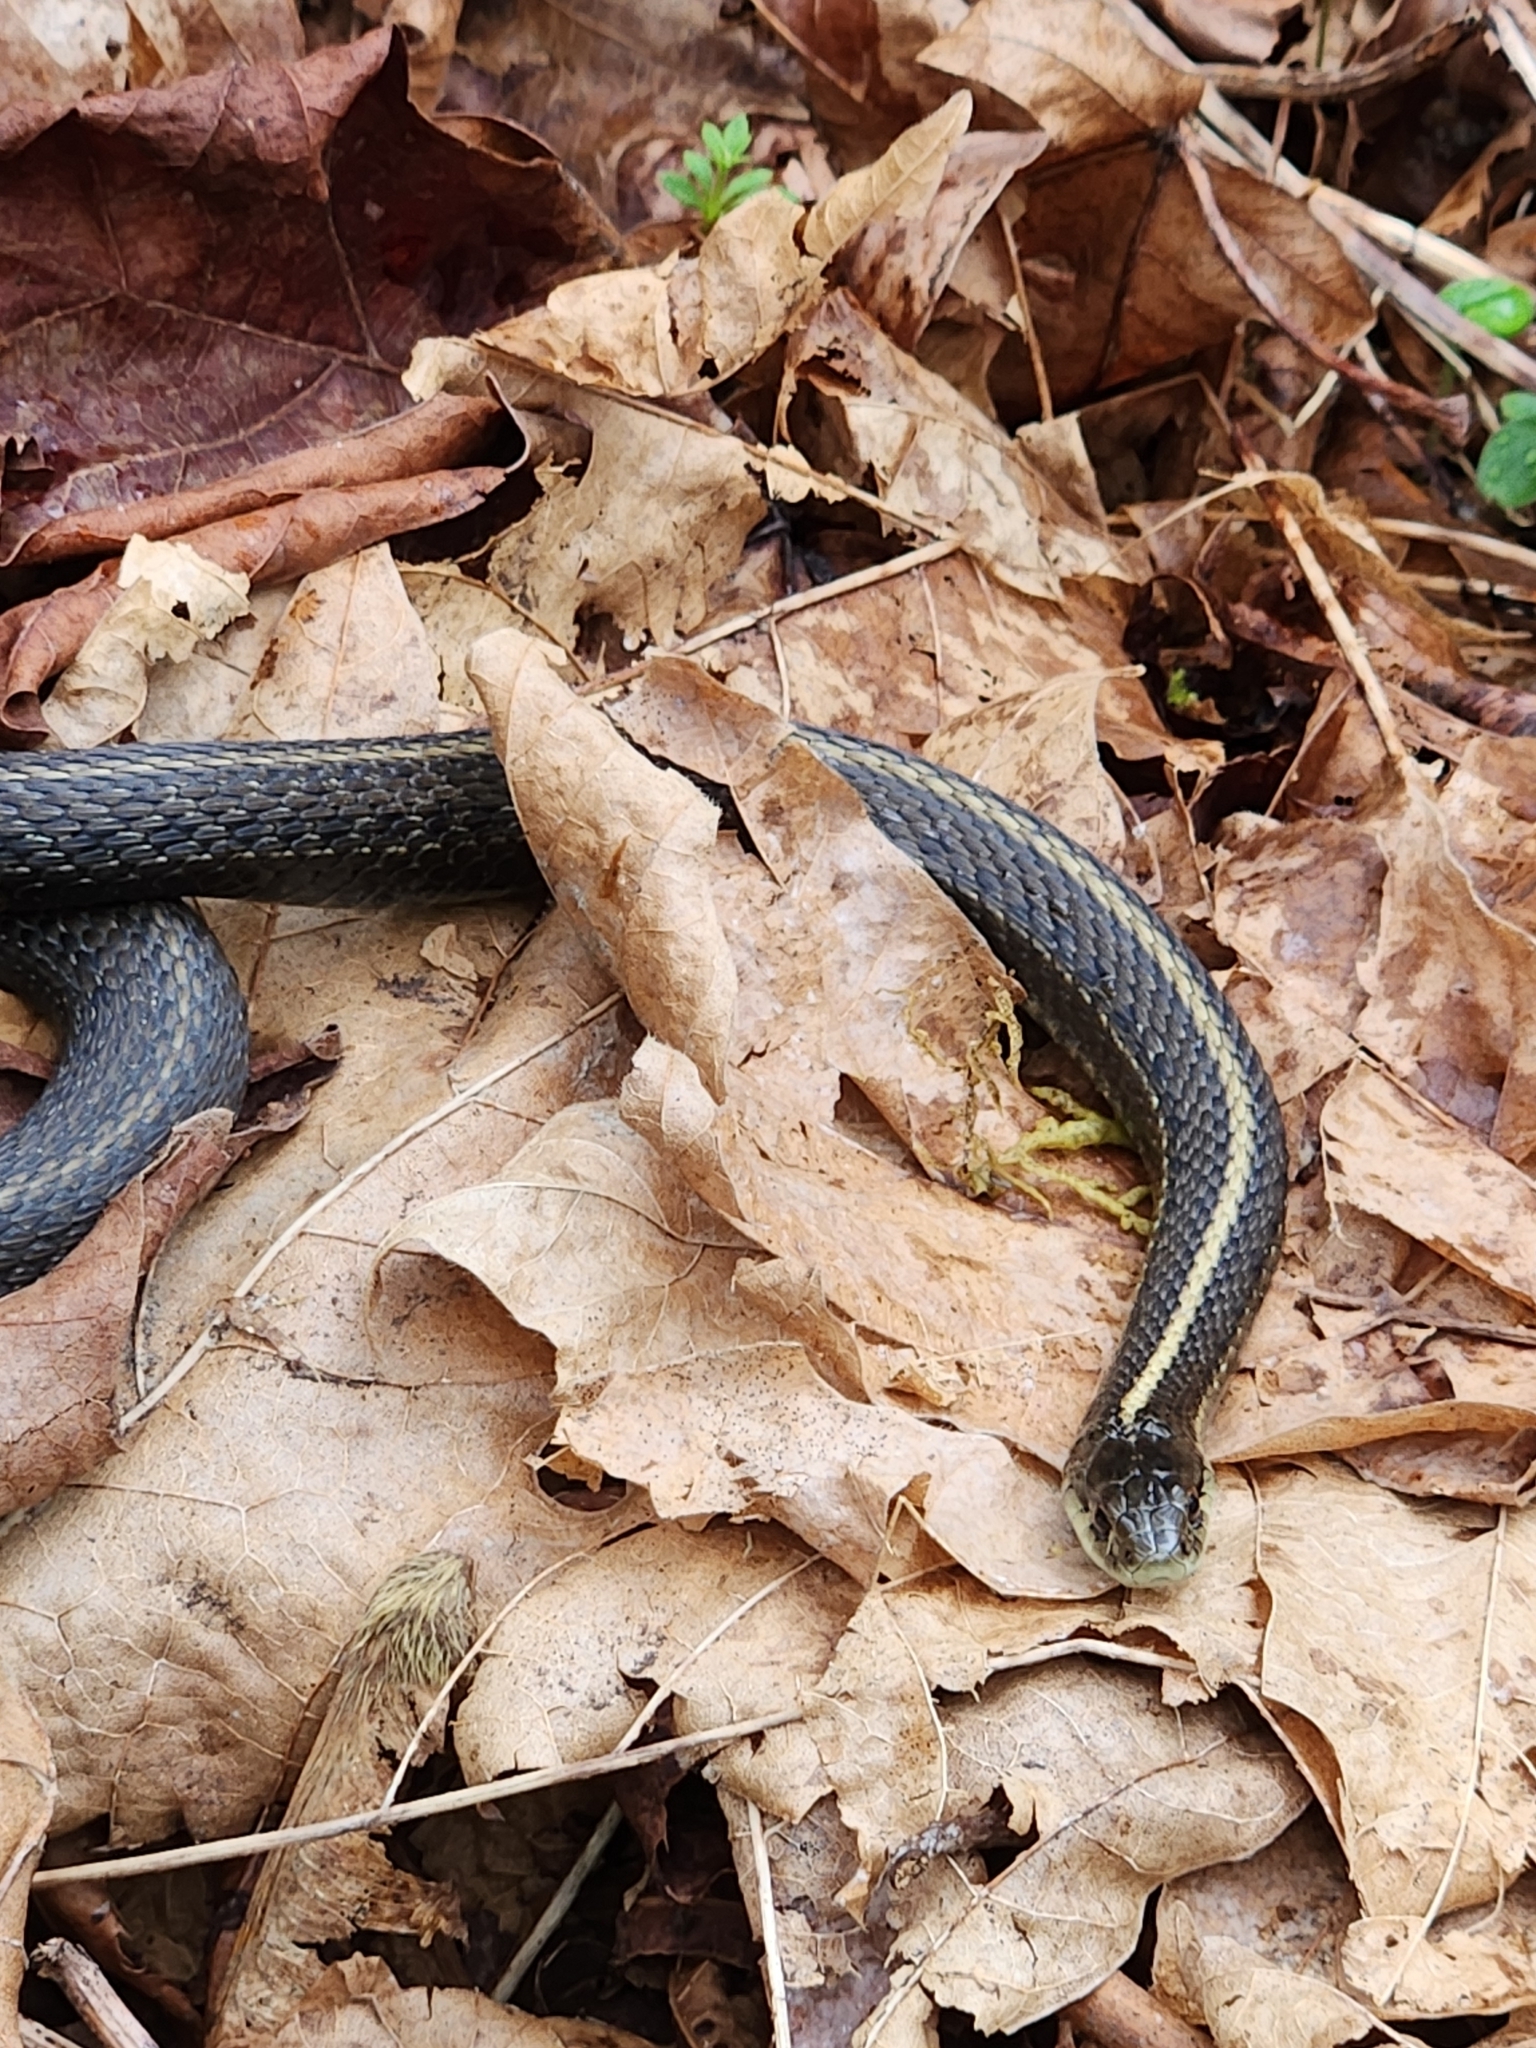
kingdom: Animalia
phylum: Chordata
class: Squamata
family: Colubridae
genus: Thamnophis
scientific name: Thamnophis ordinoides
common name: Northwestern garter snake
